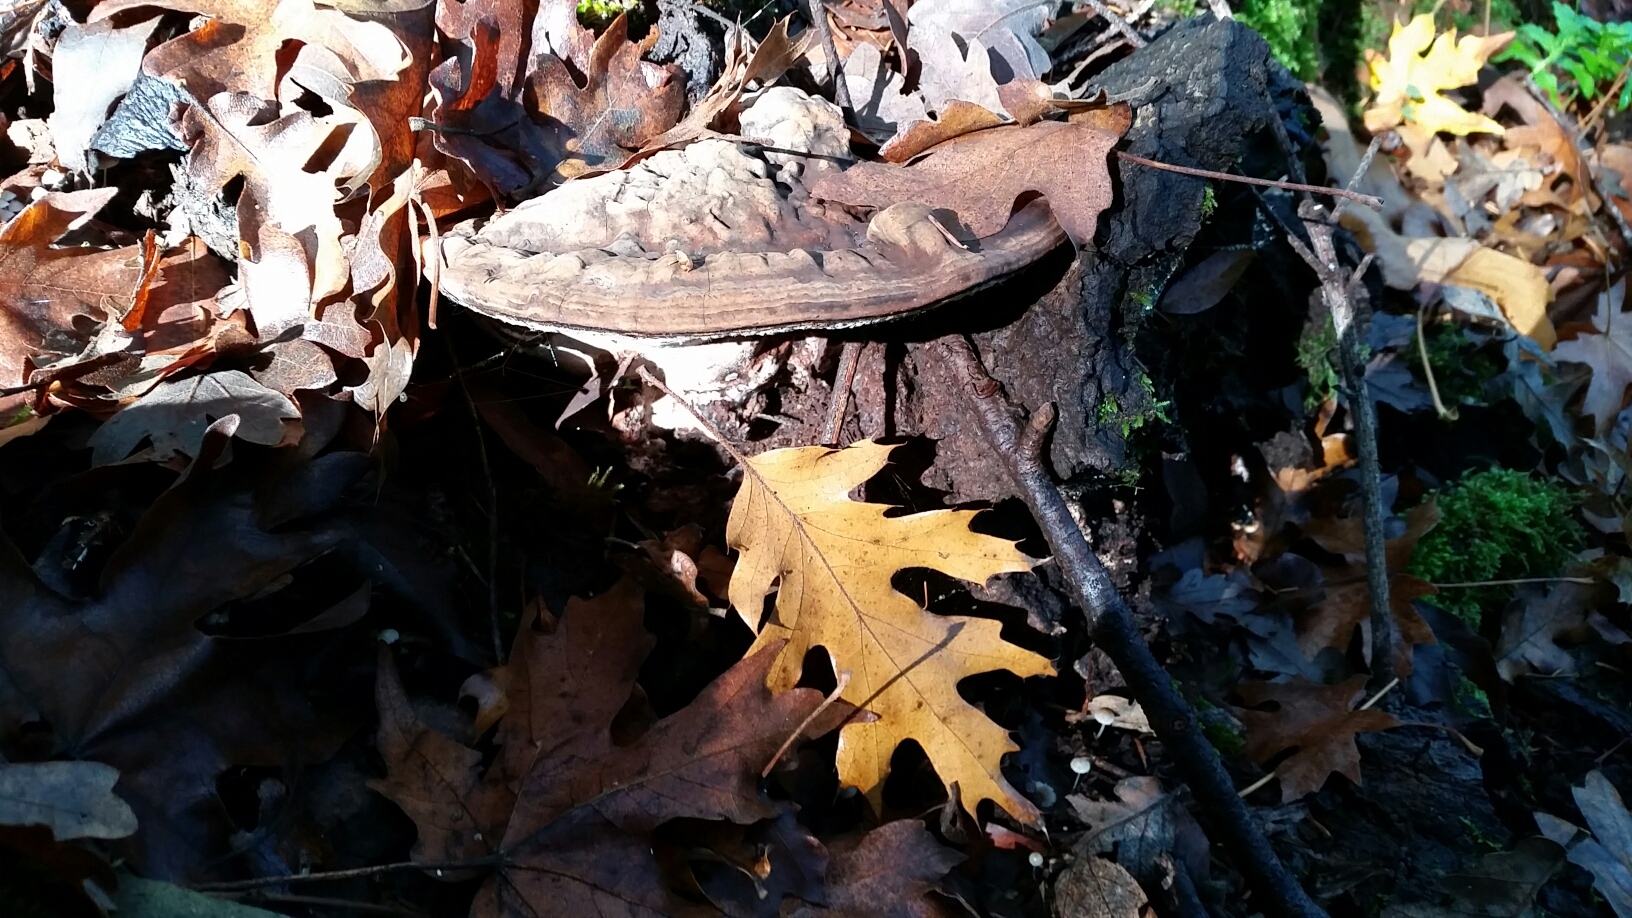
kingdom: Fungi
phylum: Basidiomycota
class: Agaricomycetes
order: Polyporales
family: Polyporaceae
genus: Ganoderma
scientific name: Ganoderma brownii
